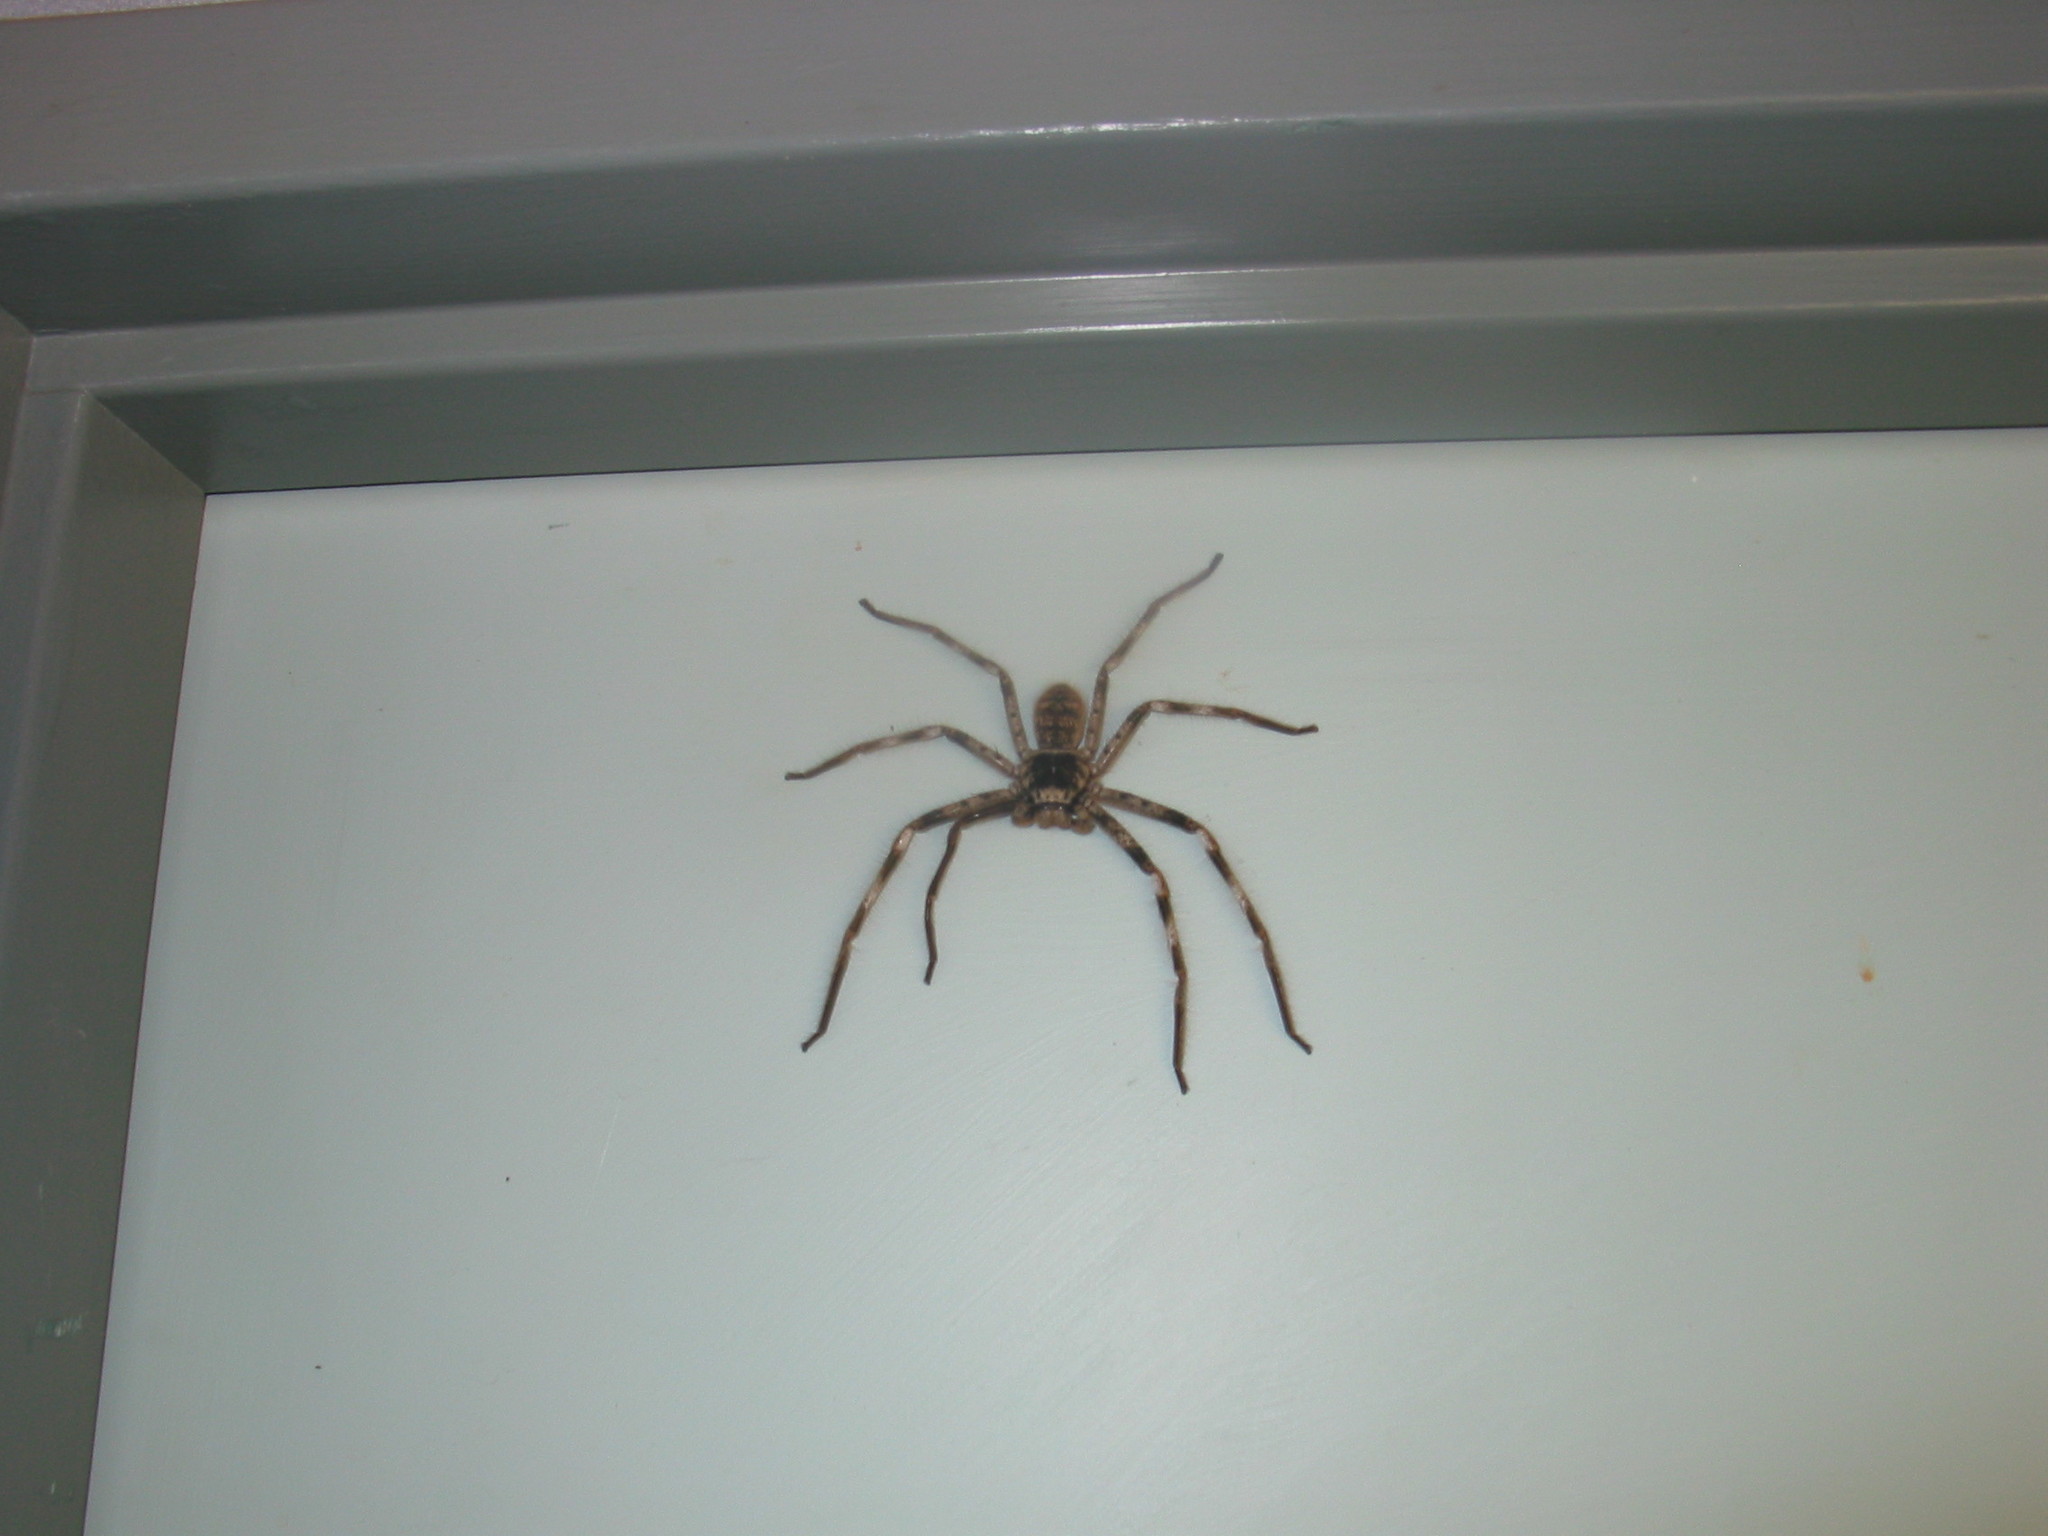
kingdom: Animalia
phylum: Arthropoda
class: Arachnida
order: Araneae
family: Sparassidae
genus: Holconia
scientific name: Holconia westralia
